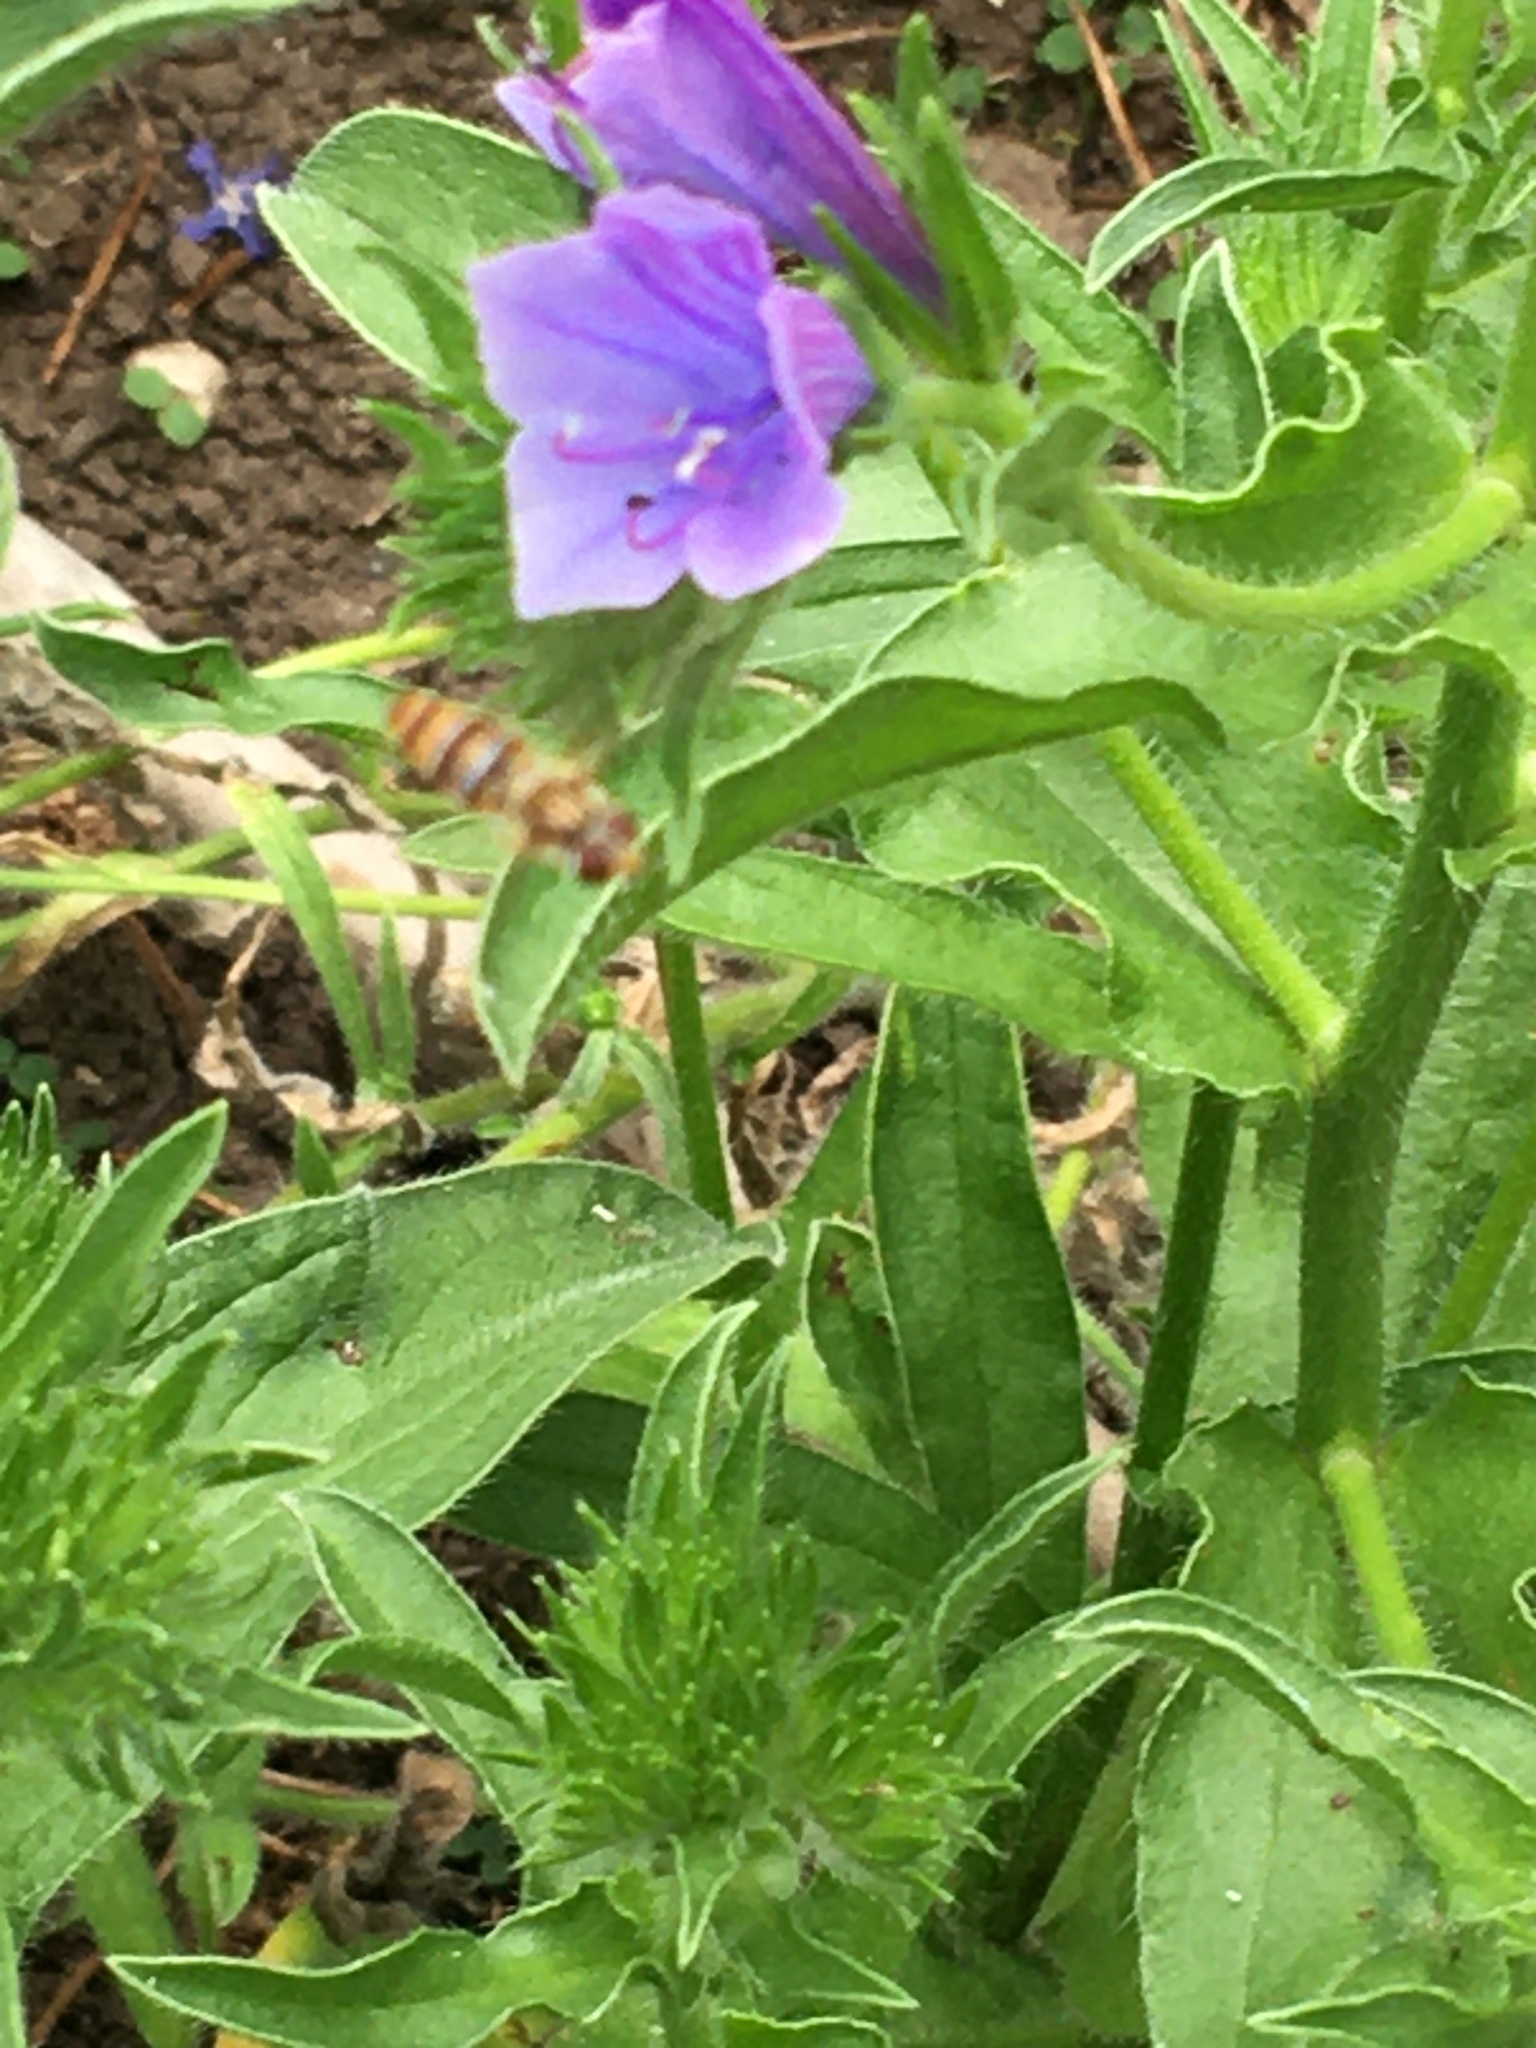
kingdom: Animalia
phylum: Arthropoda
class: Insecta
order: Diptera
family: Syrphidae
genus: Episyrphus
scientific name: Episyrphus balteatus
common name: Marmalade hoverfly
